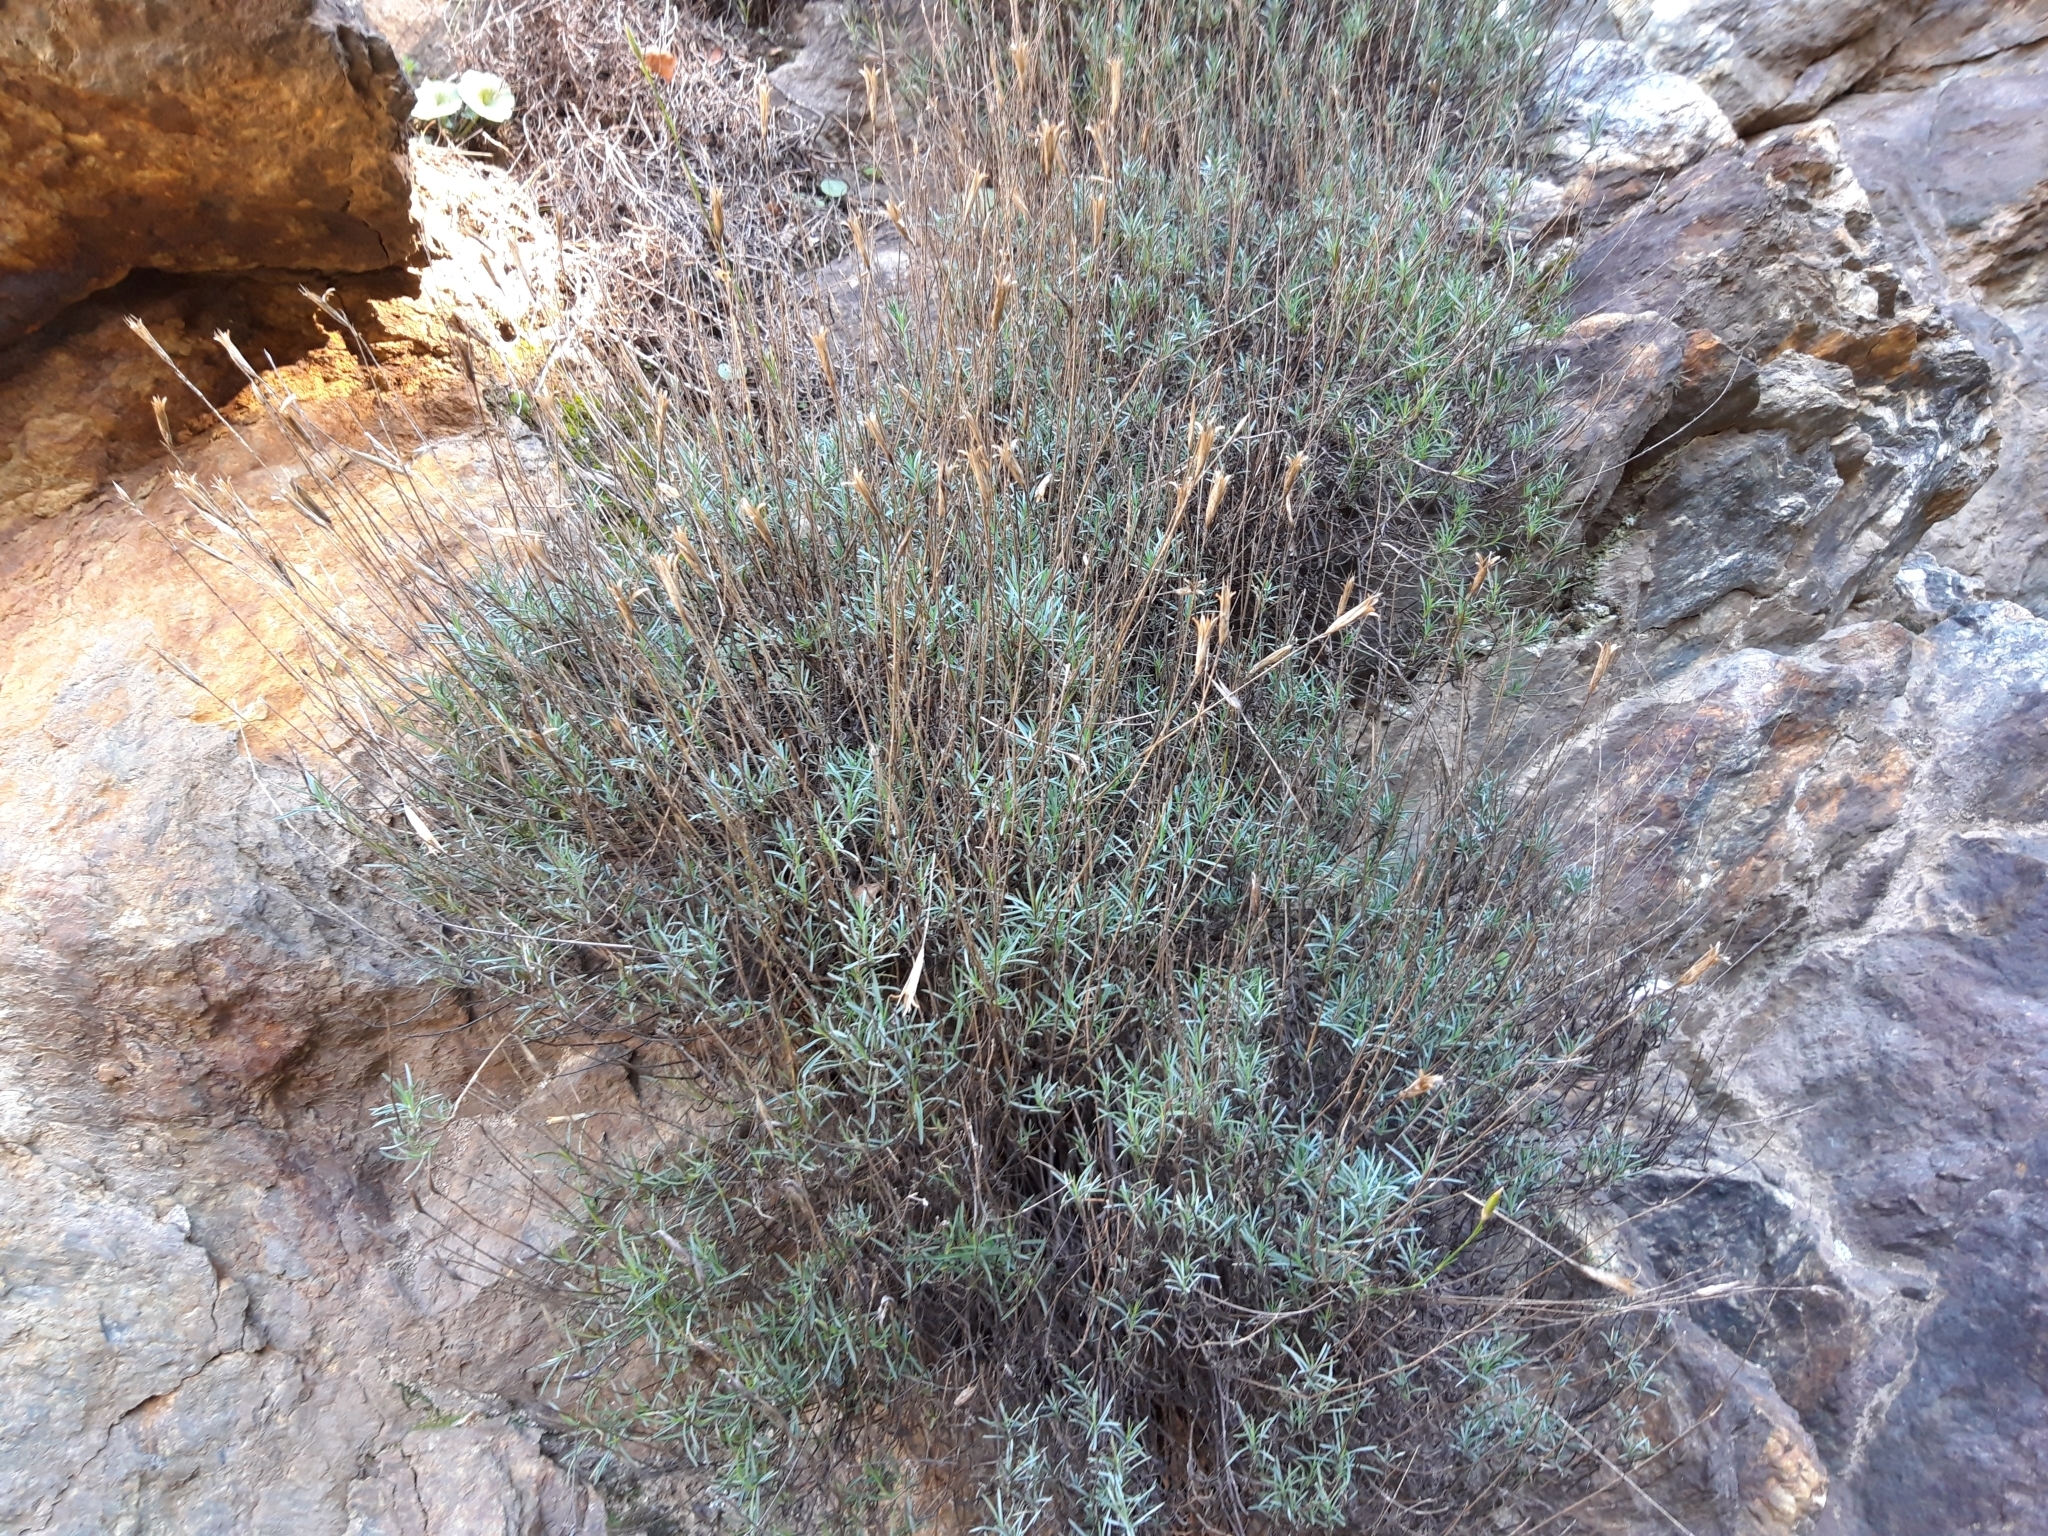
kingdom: Plantae
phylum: Tracheophyta
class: Magnoliopsida
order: Caryophyllales
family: Caryophyllaceae
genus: Dianthus
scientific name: Dianthus lusitanus
